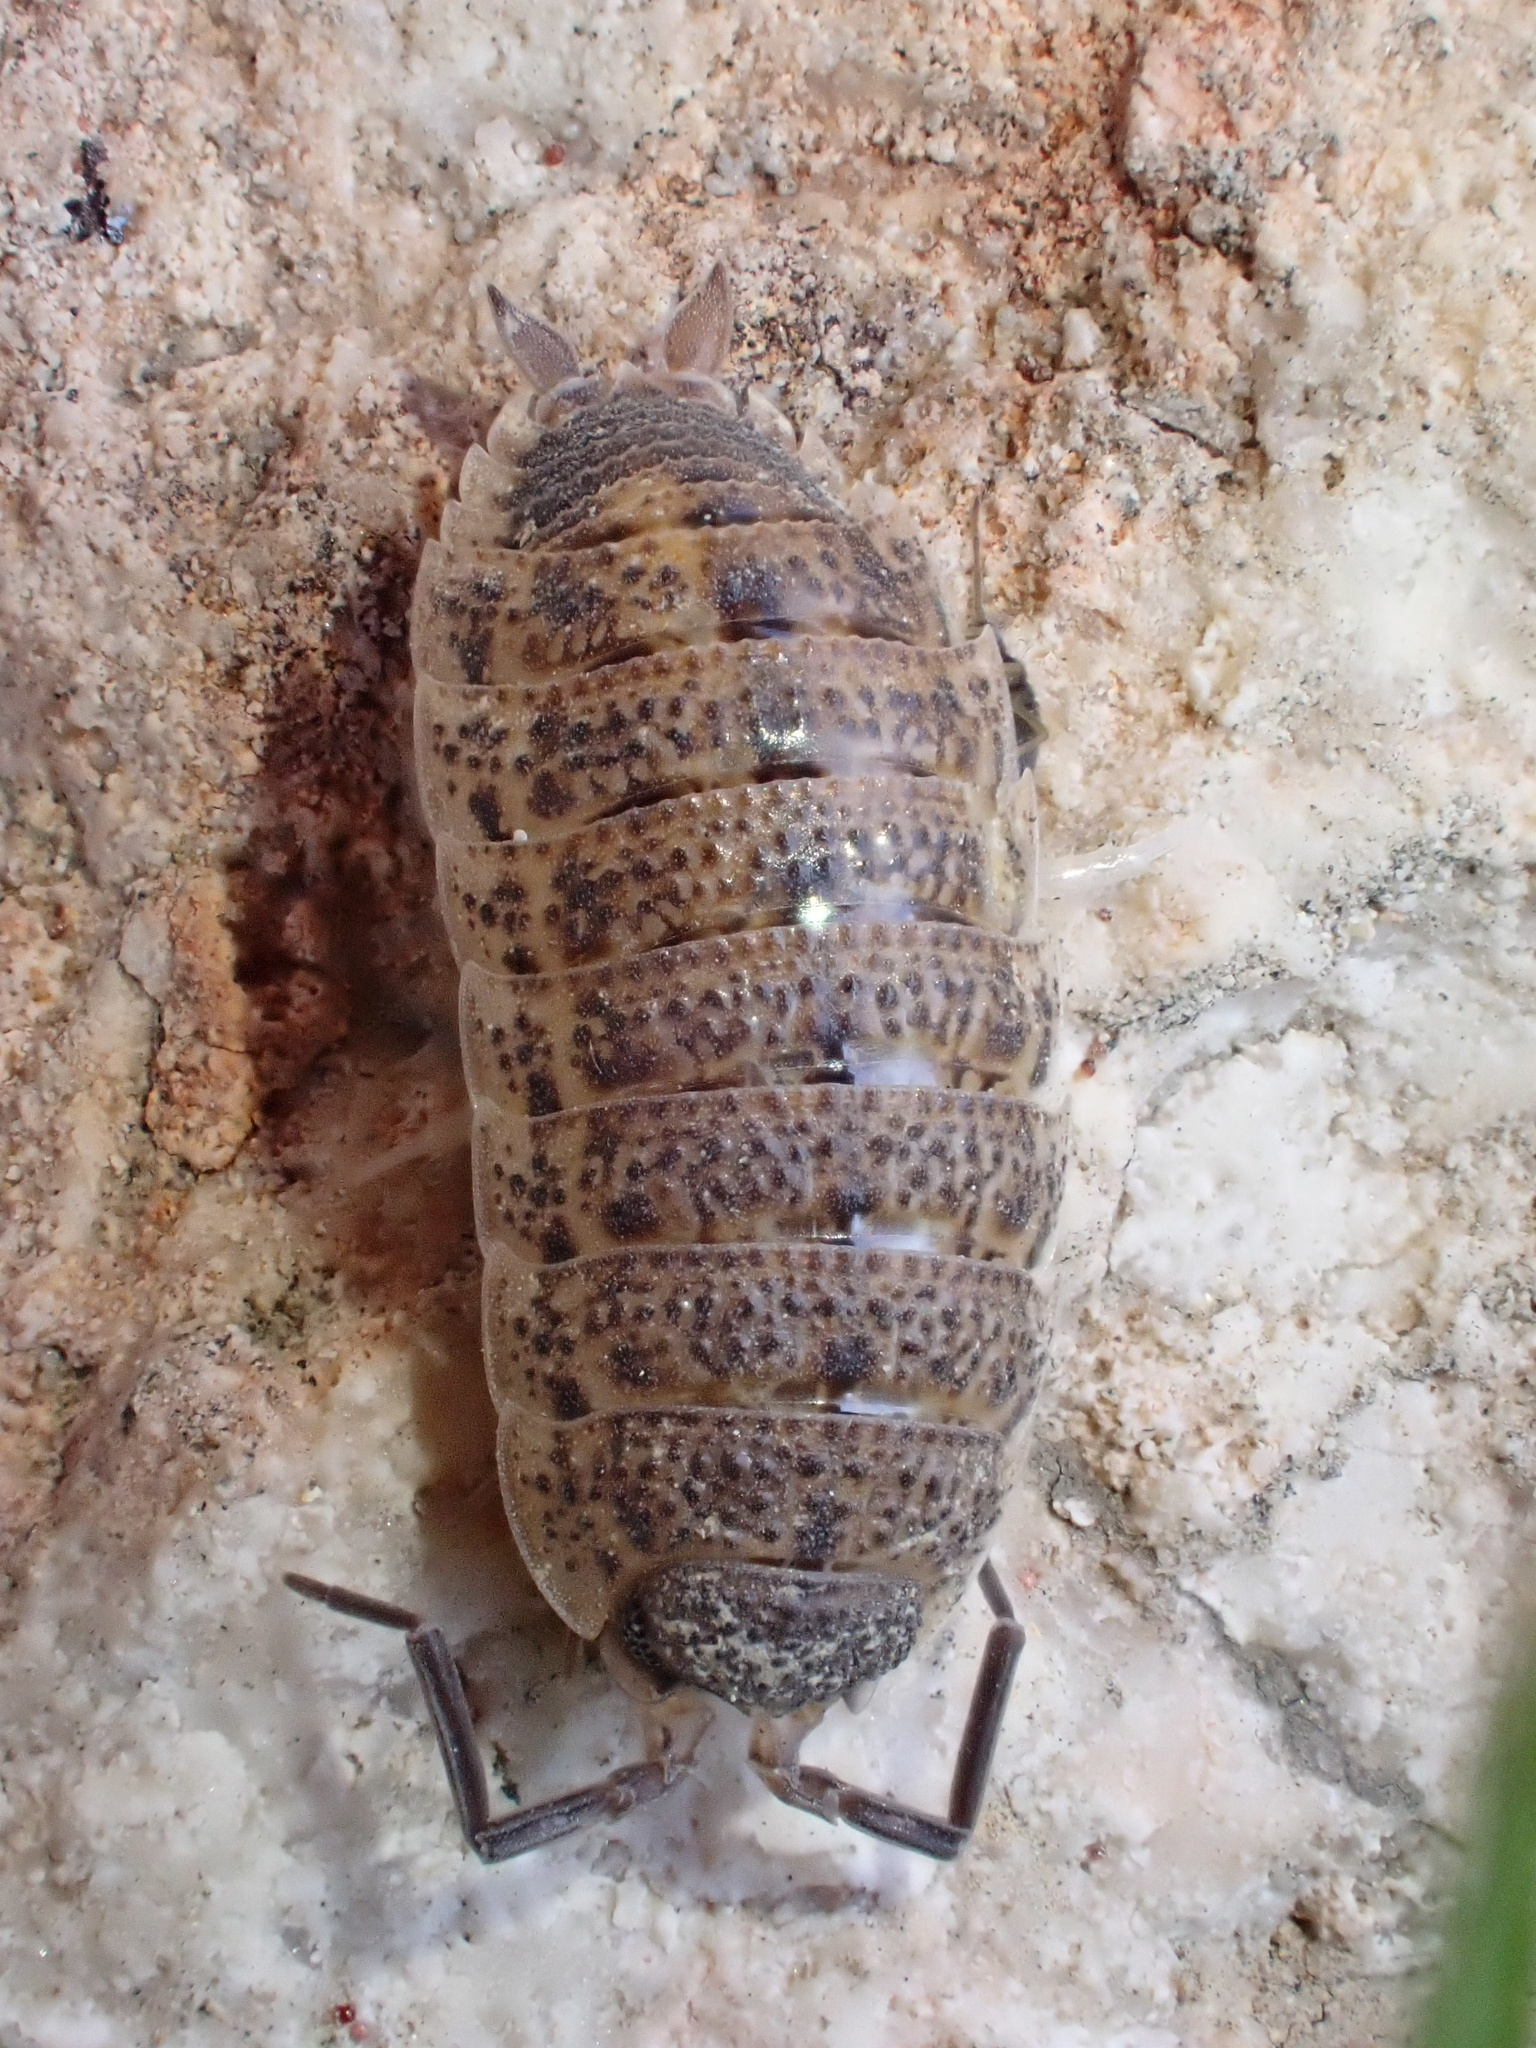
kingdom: Animalia
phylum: Arthropoda
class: Malacostraca
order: Isopoda
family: Porcellionidae
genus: Porcellio
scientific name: Porcellio evansi
